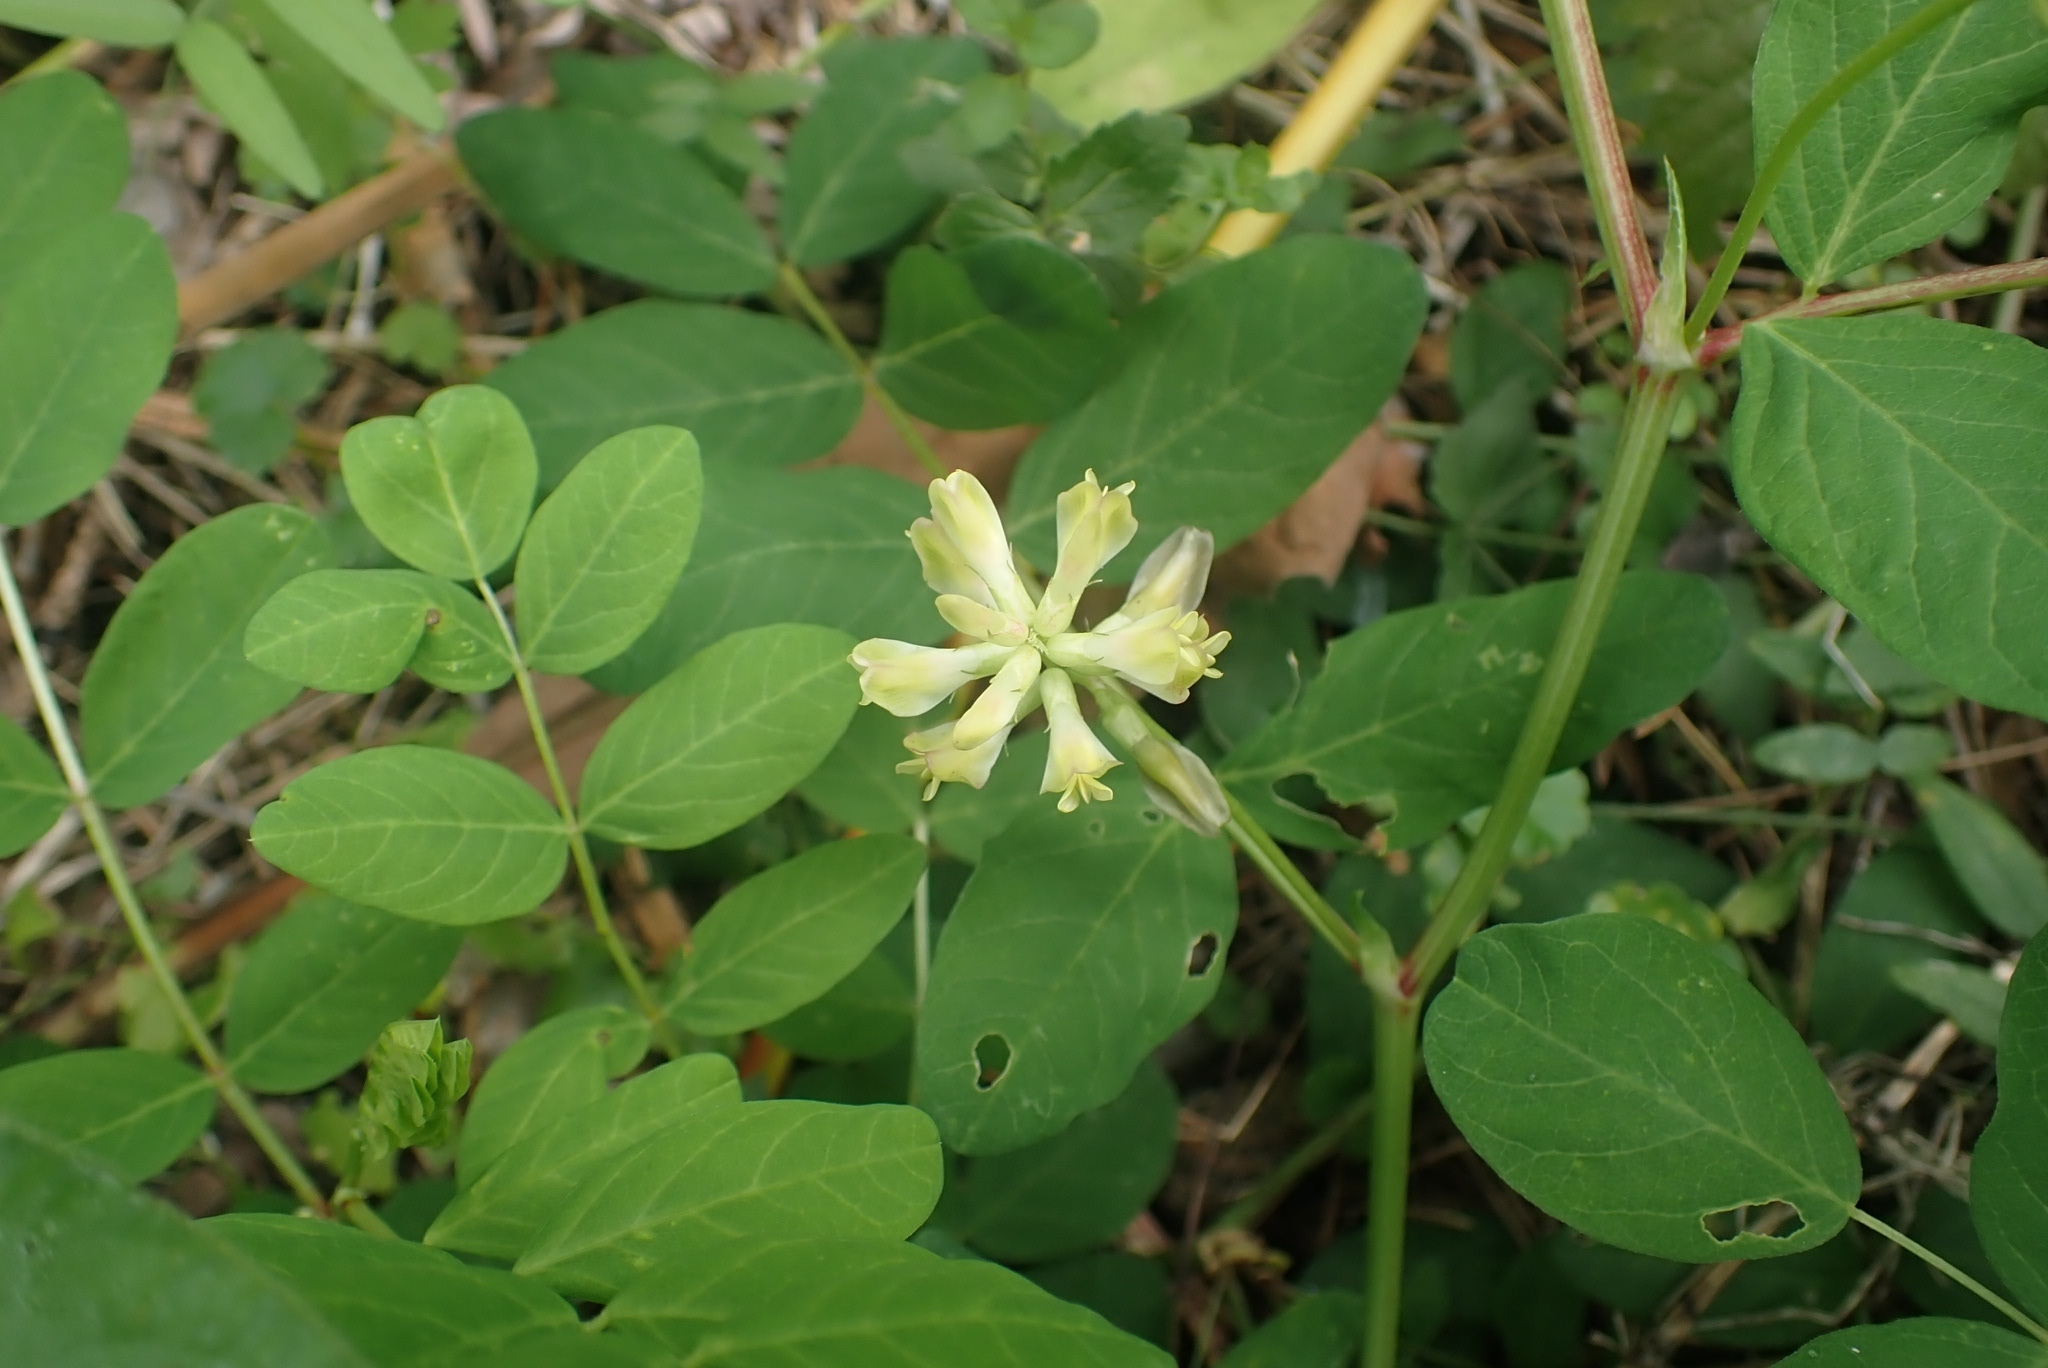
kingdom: Plantae
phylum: Tracheophyta
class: Magnoliopsida
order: Fabales
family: Fabaceae
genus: Astragalus
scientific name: Astragalus glycyphyllos
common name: Wild liquorice
